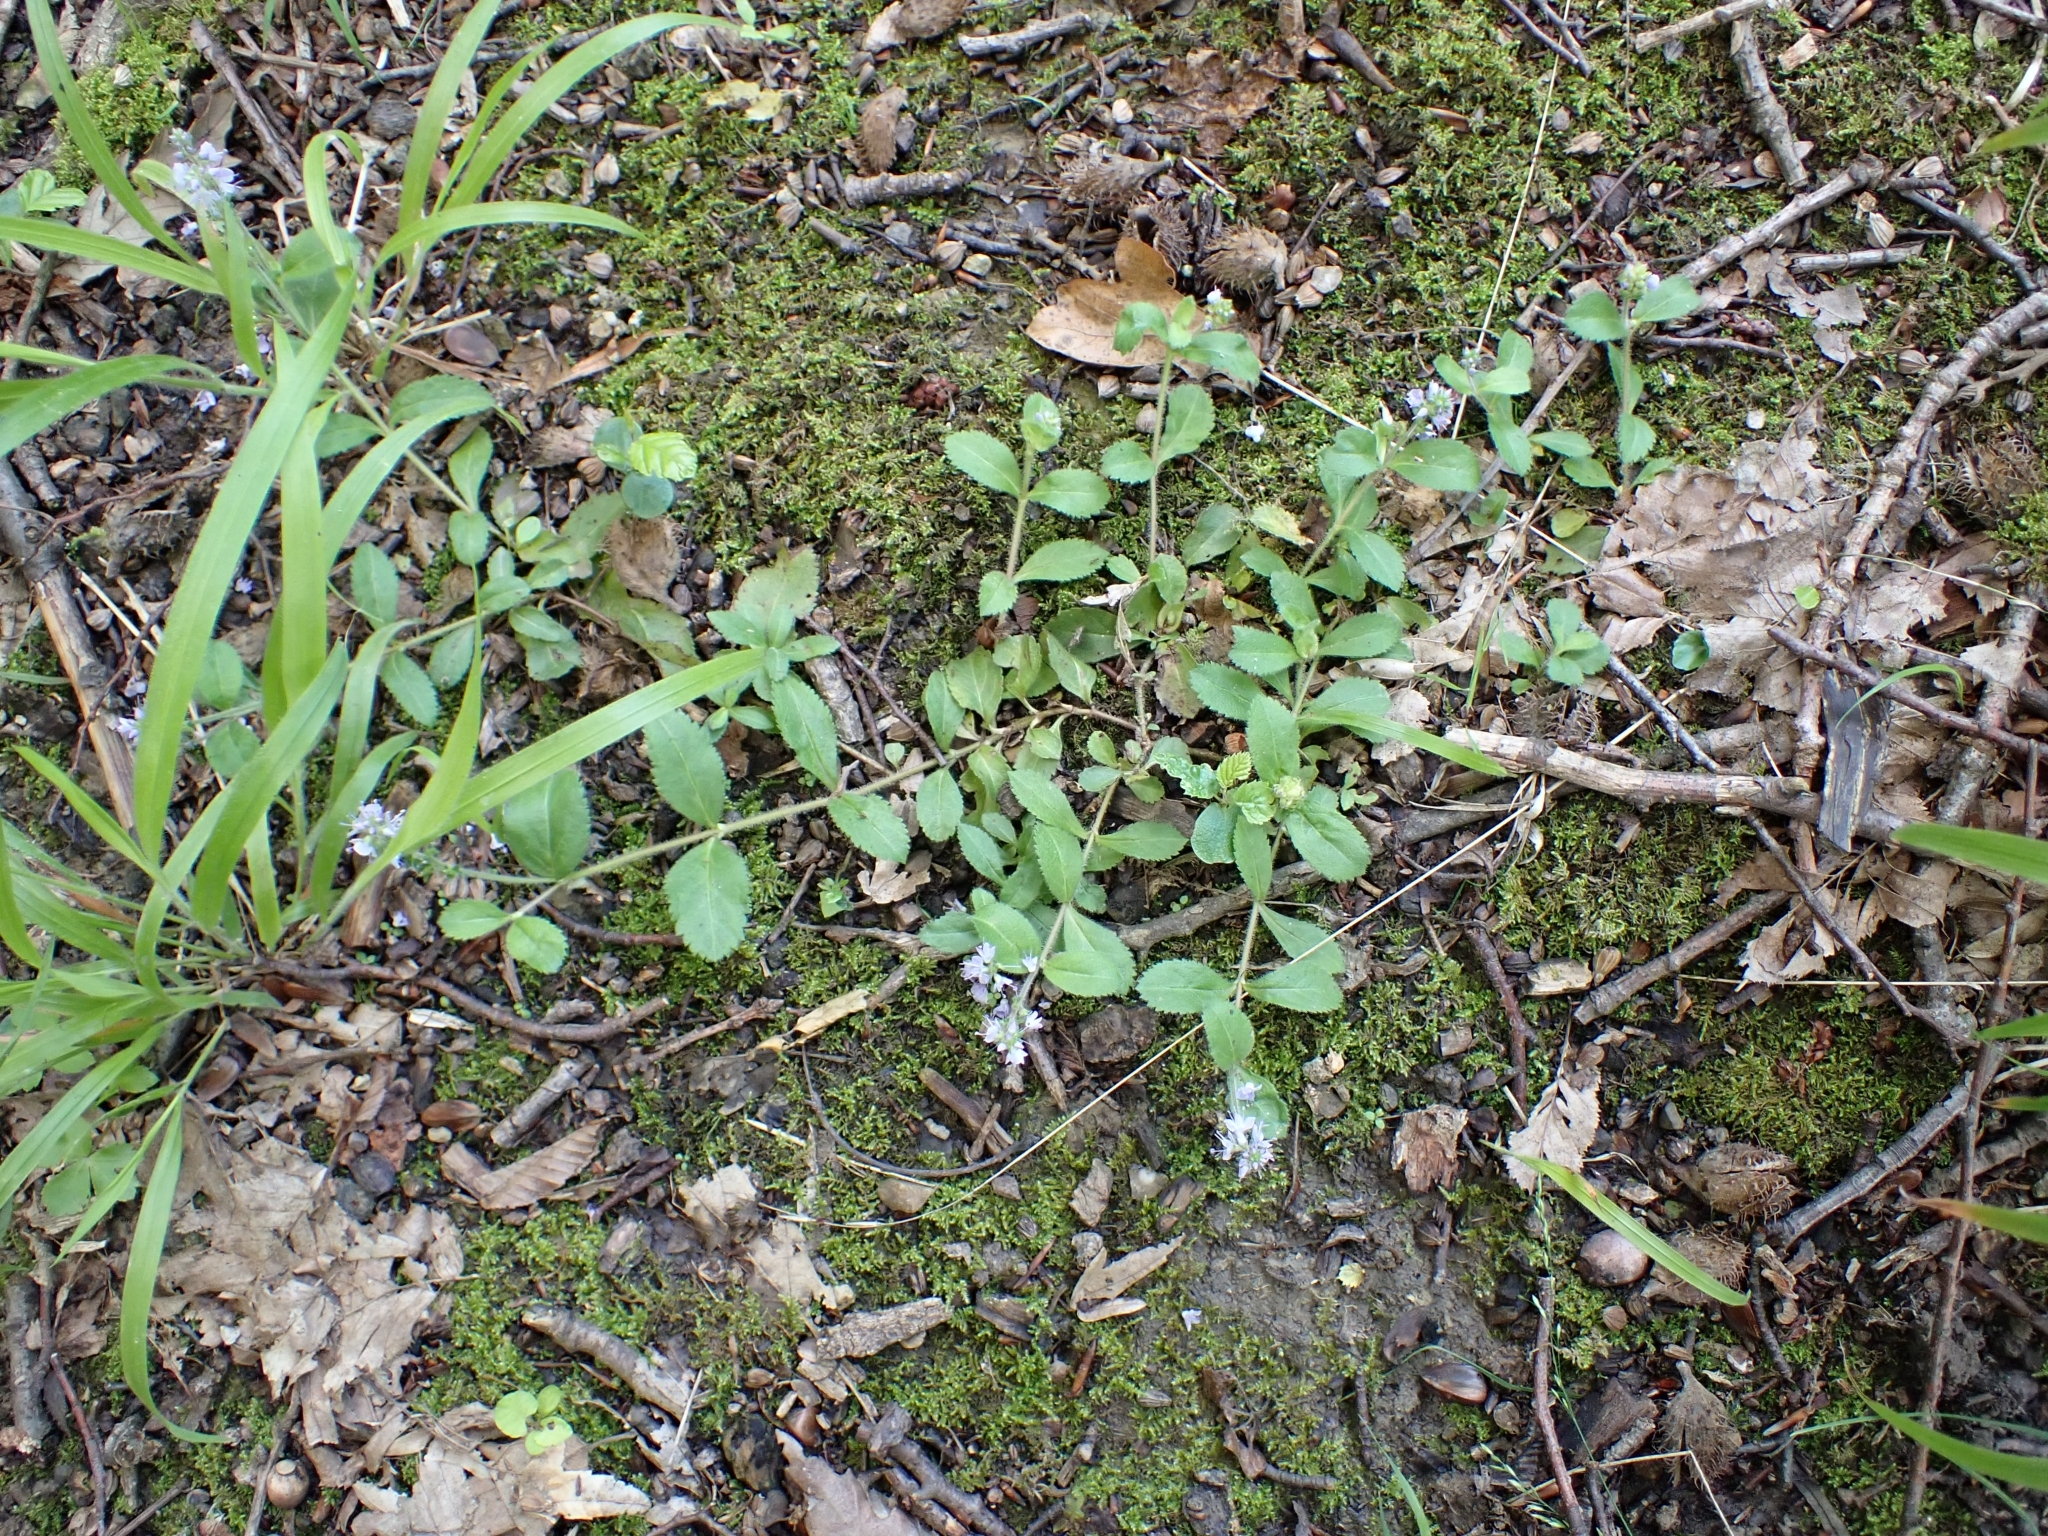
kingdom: Plantae
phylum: Tracheophyta
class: Magnoliopsida
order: Lamiales
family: Plantaginaceae
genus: Veronica
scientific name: Veronica officinalis
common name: Common speedwell
